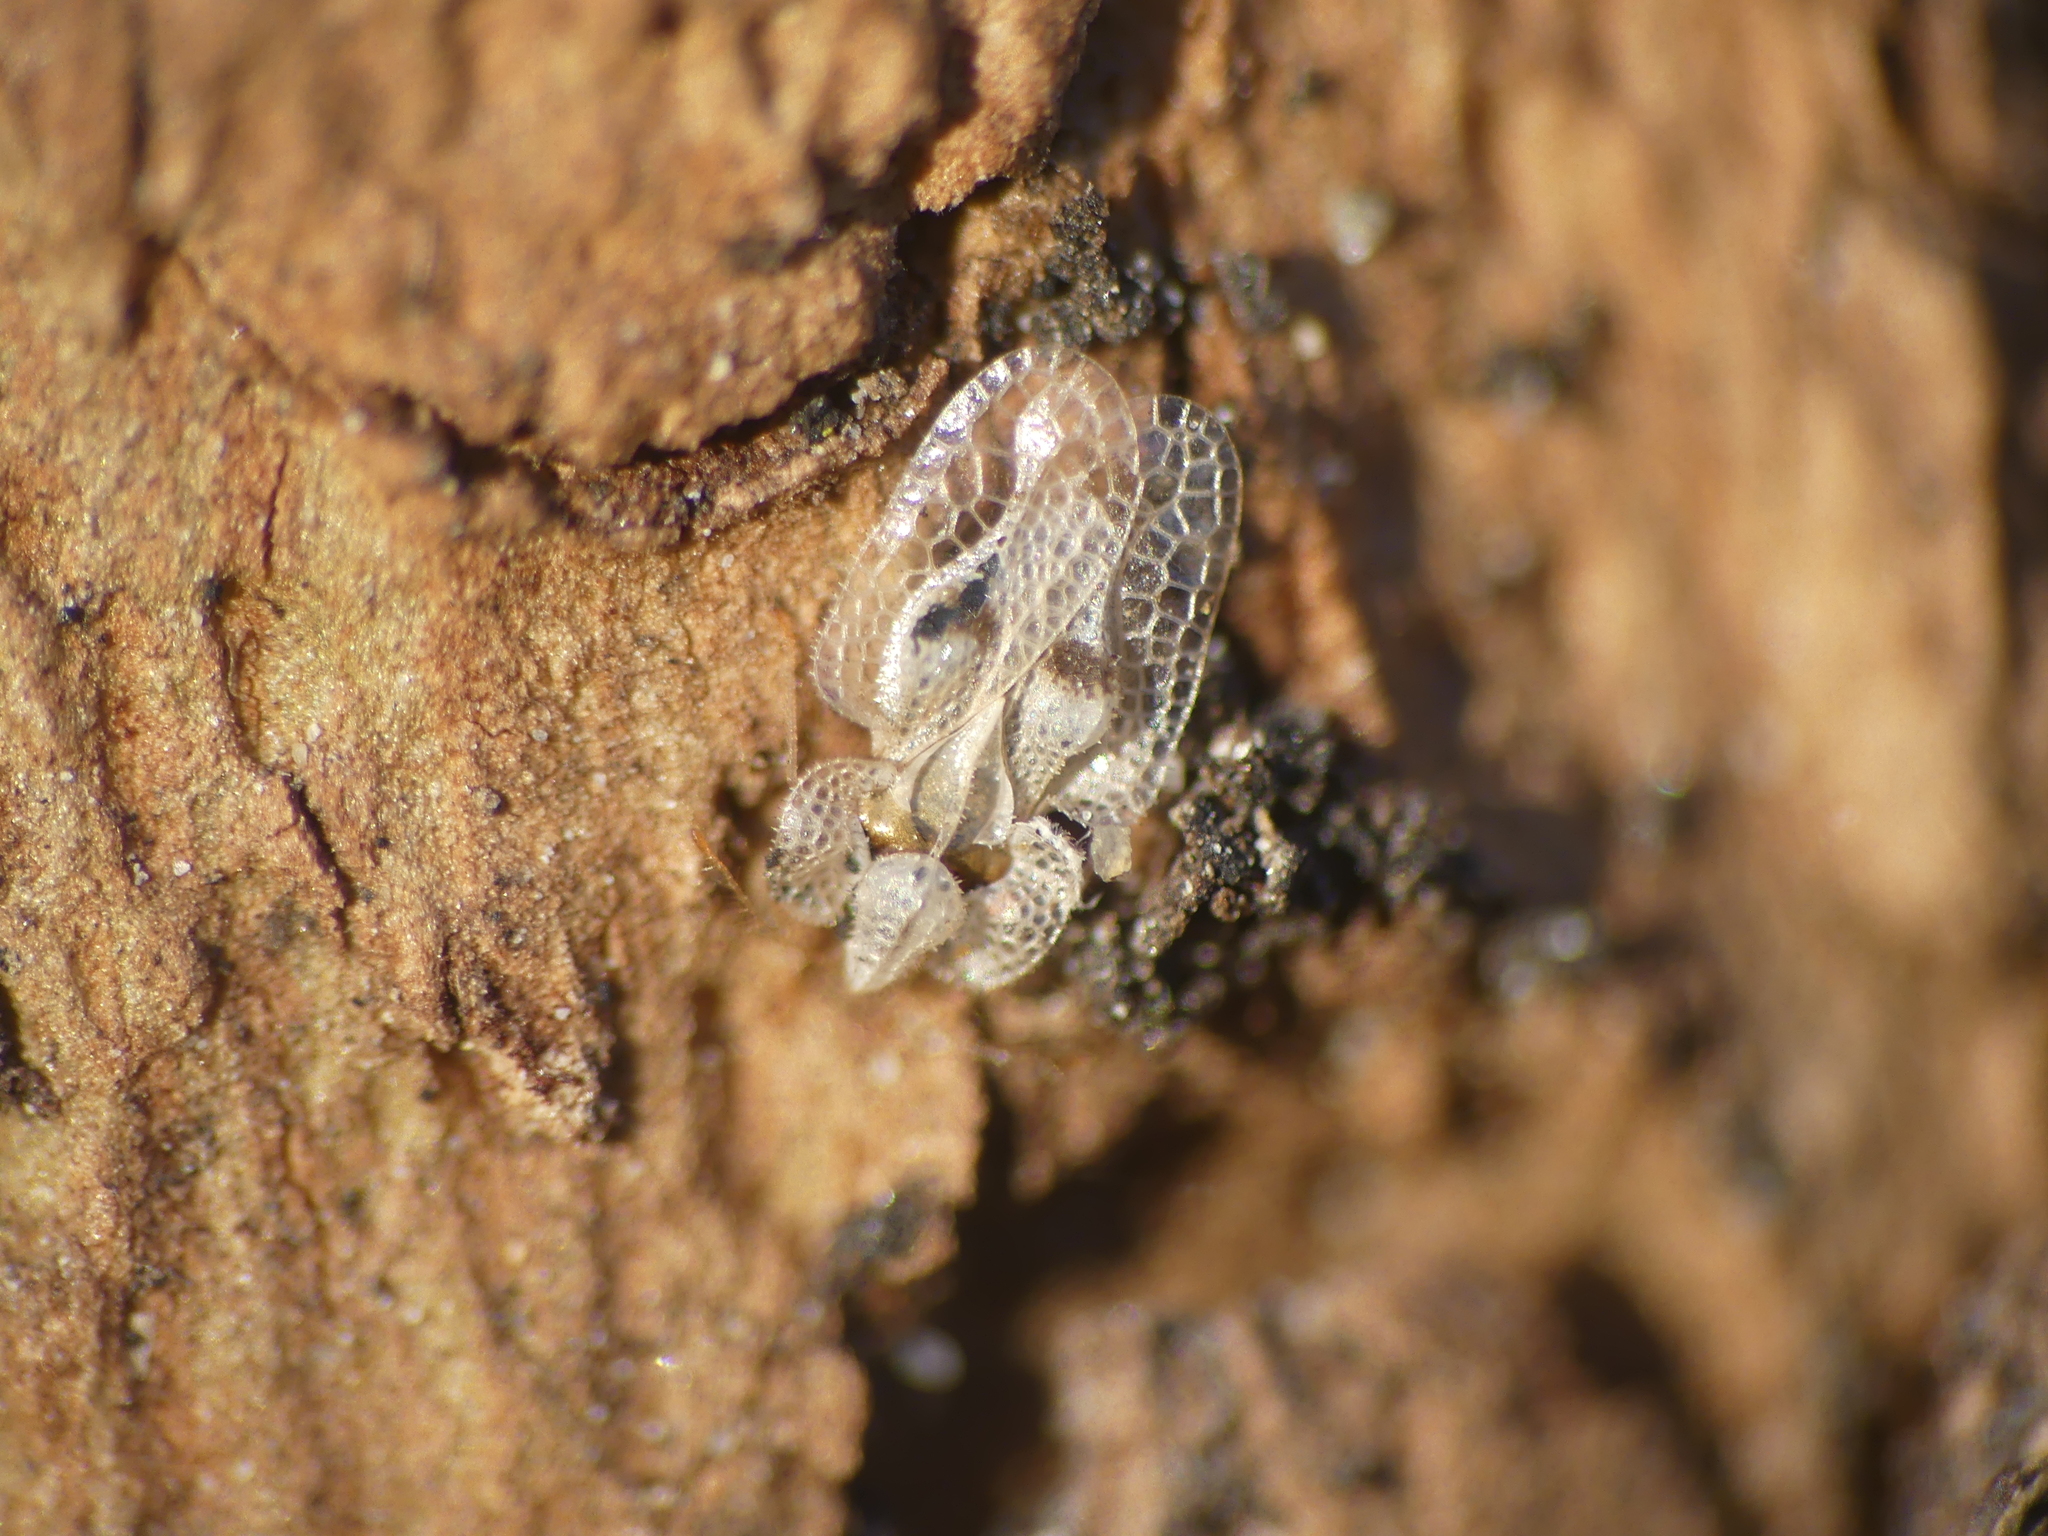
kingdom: Animalia
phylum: Arthropoda
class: Insecta
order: Hemiptera
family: Tingidae
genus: Corythucha
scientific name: Corythucha ciliata
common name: Sycamore lace bug
